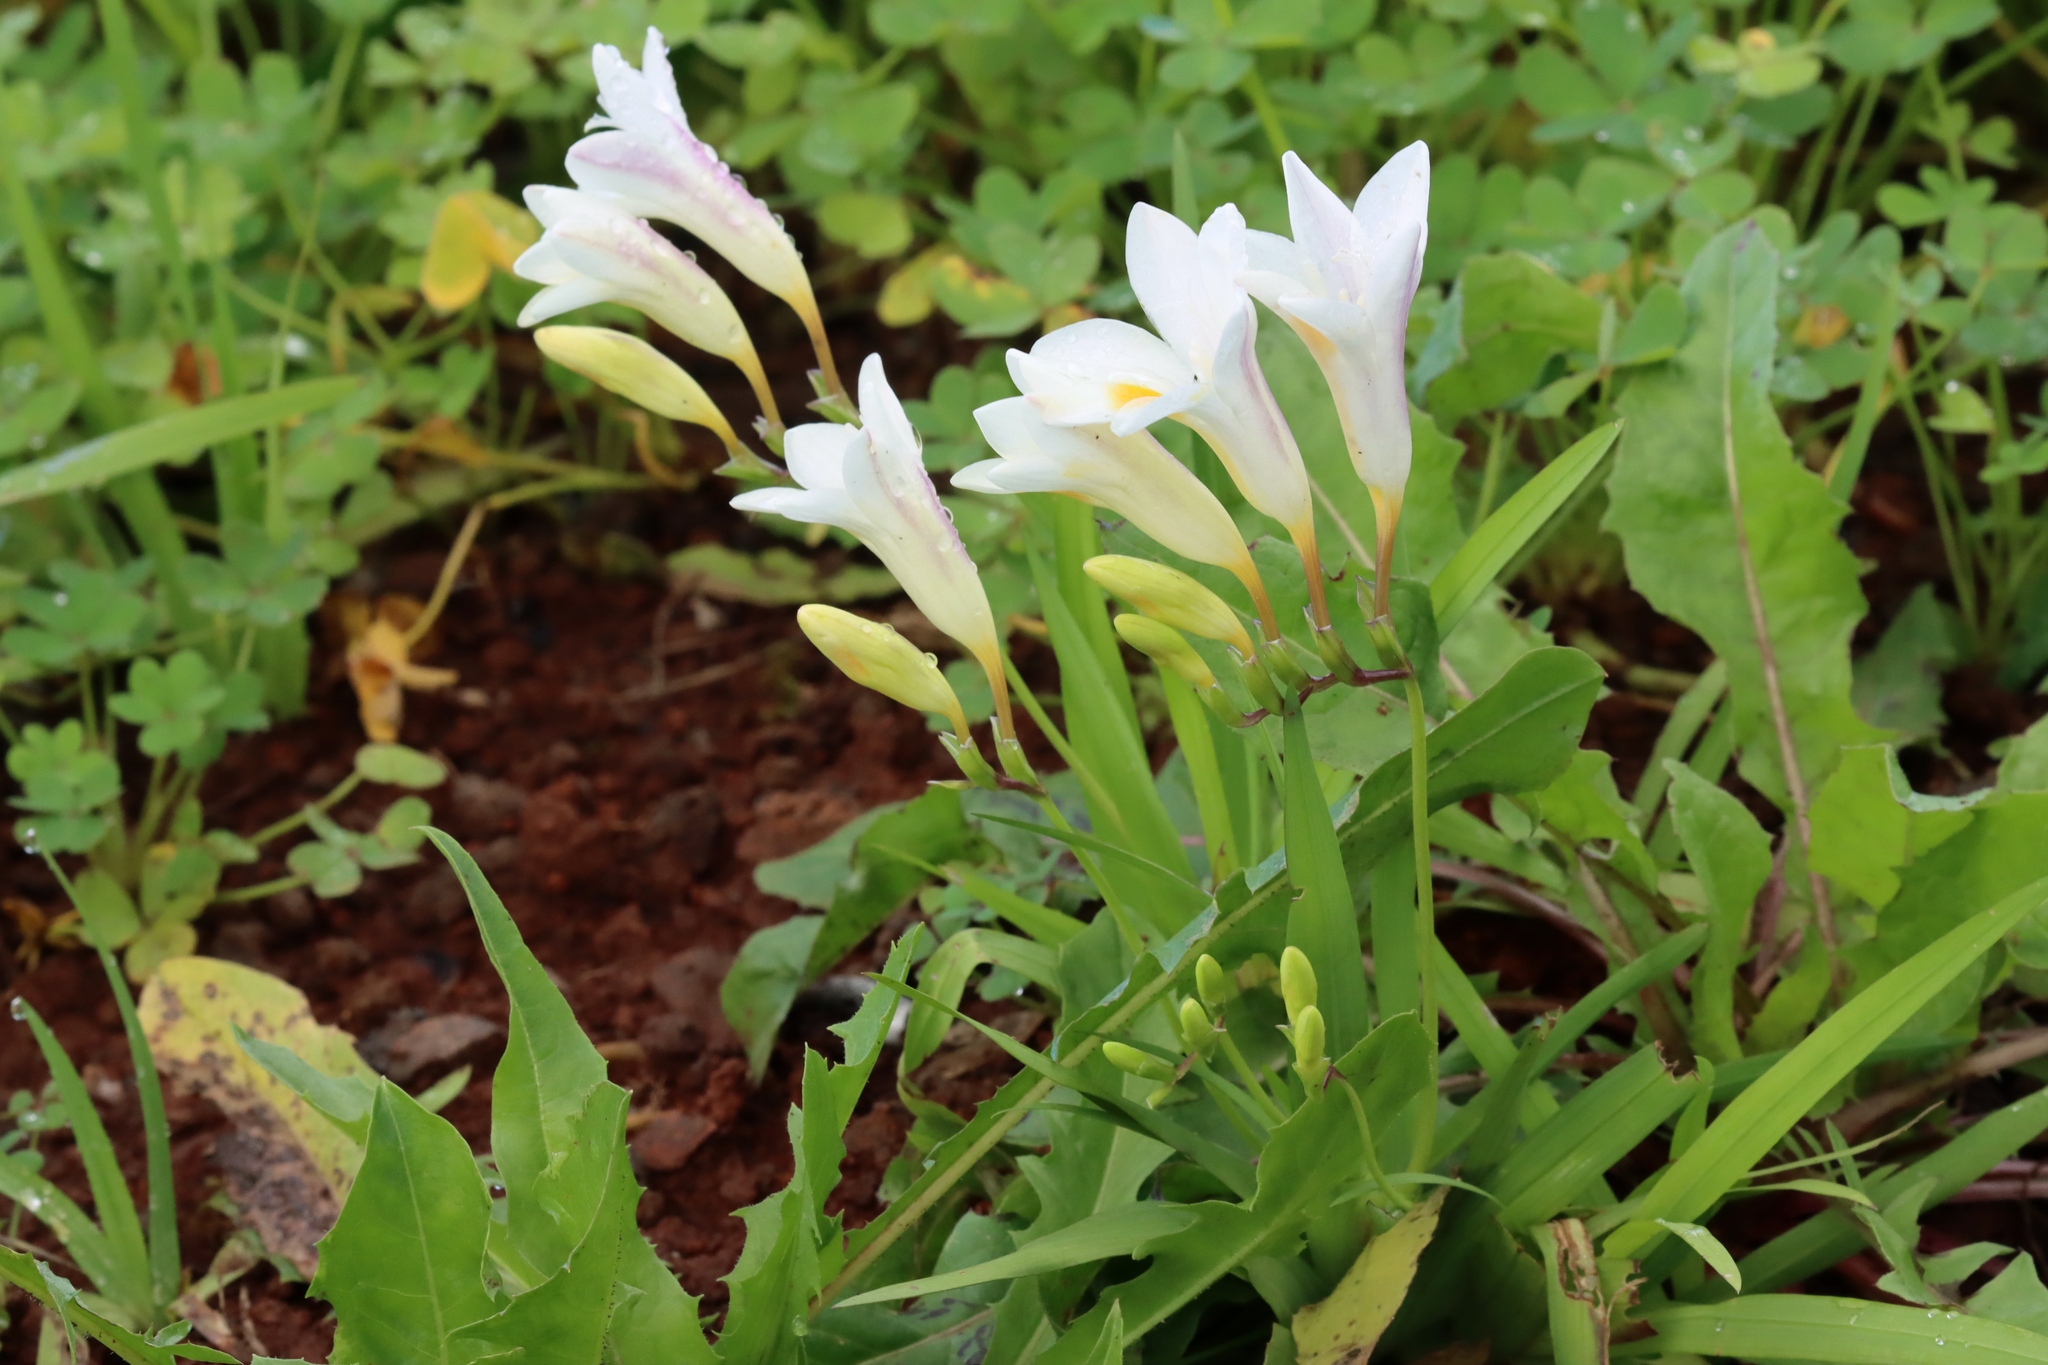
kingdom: Plantae
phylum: Tracheophyta
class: Liliopsida
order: Asparagales
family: Iridaceae
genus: Freesia
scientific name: Freesia leichtlinii
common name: Freesia
